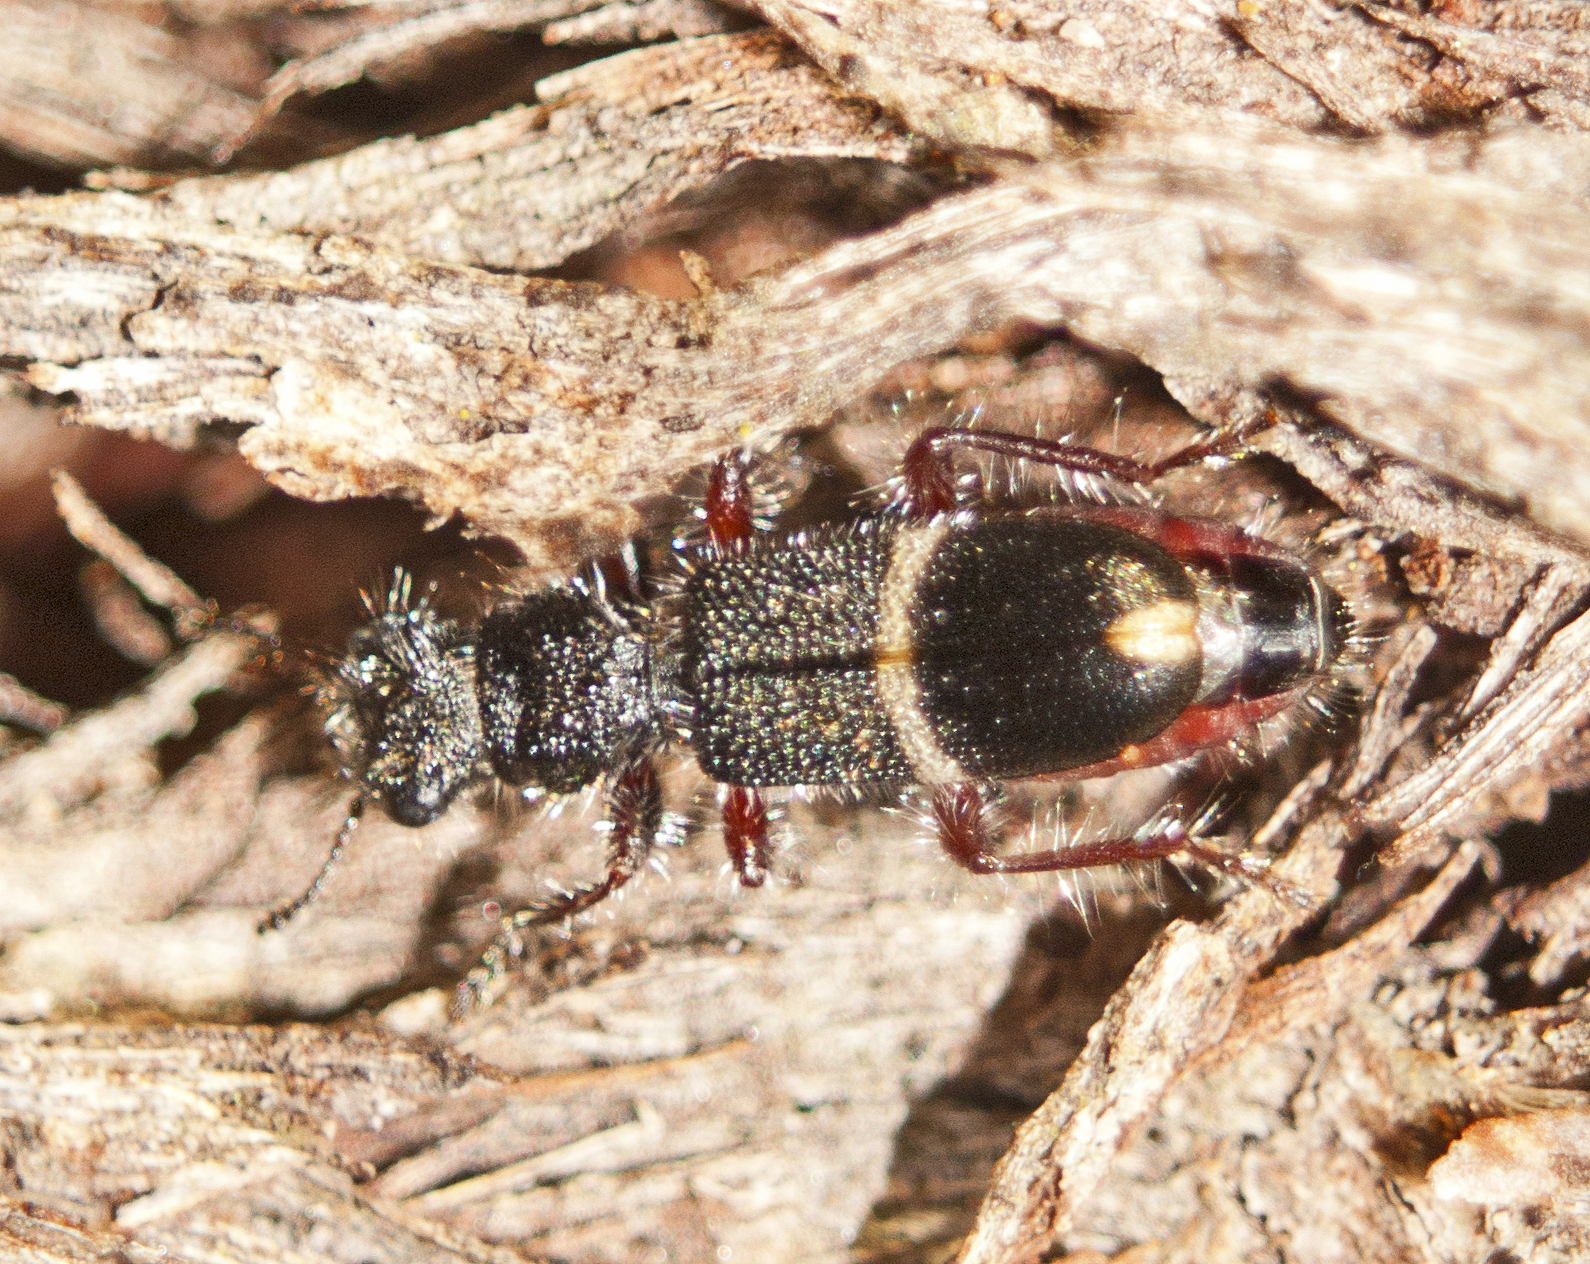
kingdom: Animalia
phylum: Arthropoda
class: Insecta
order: Coleoptera
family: Cleridae
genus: Lemidia
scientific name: Lemidia
